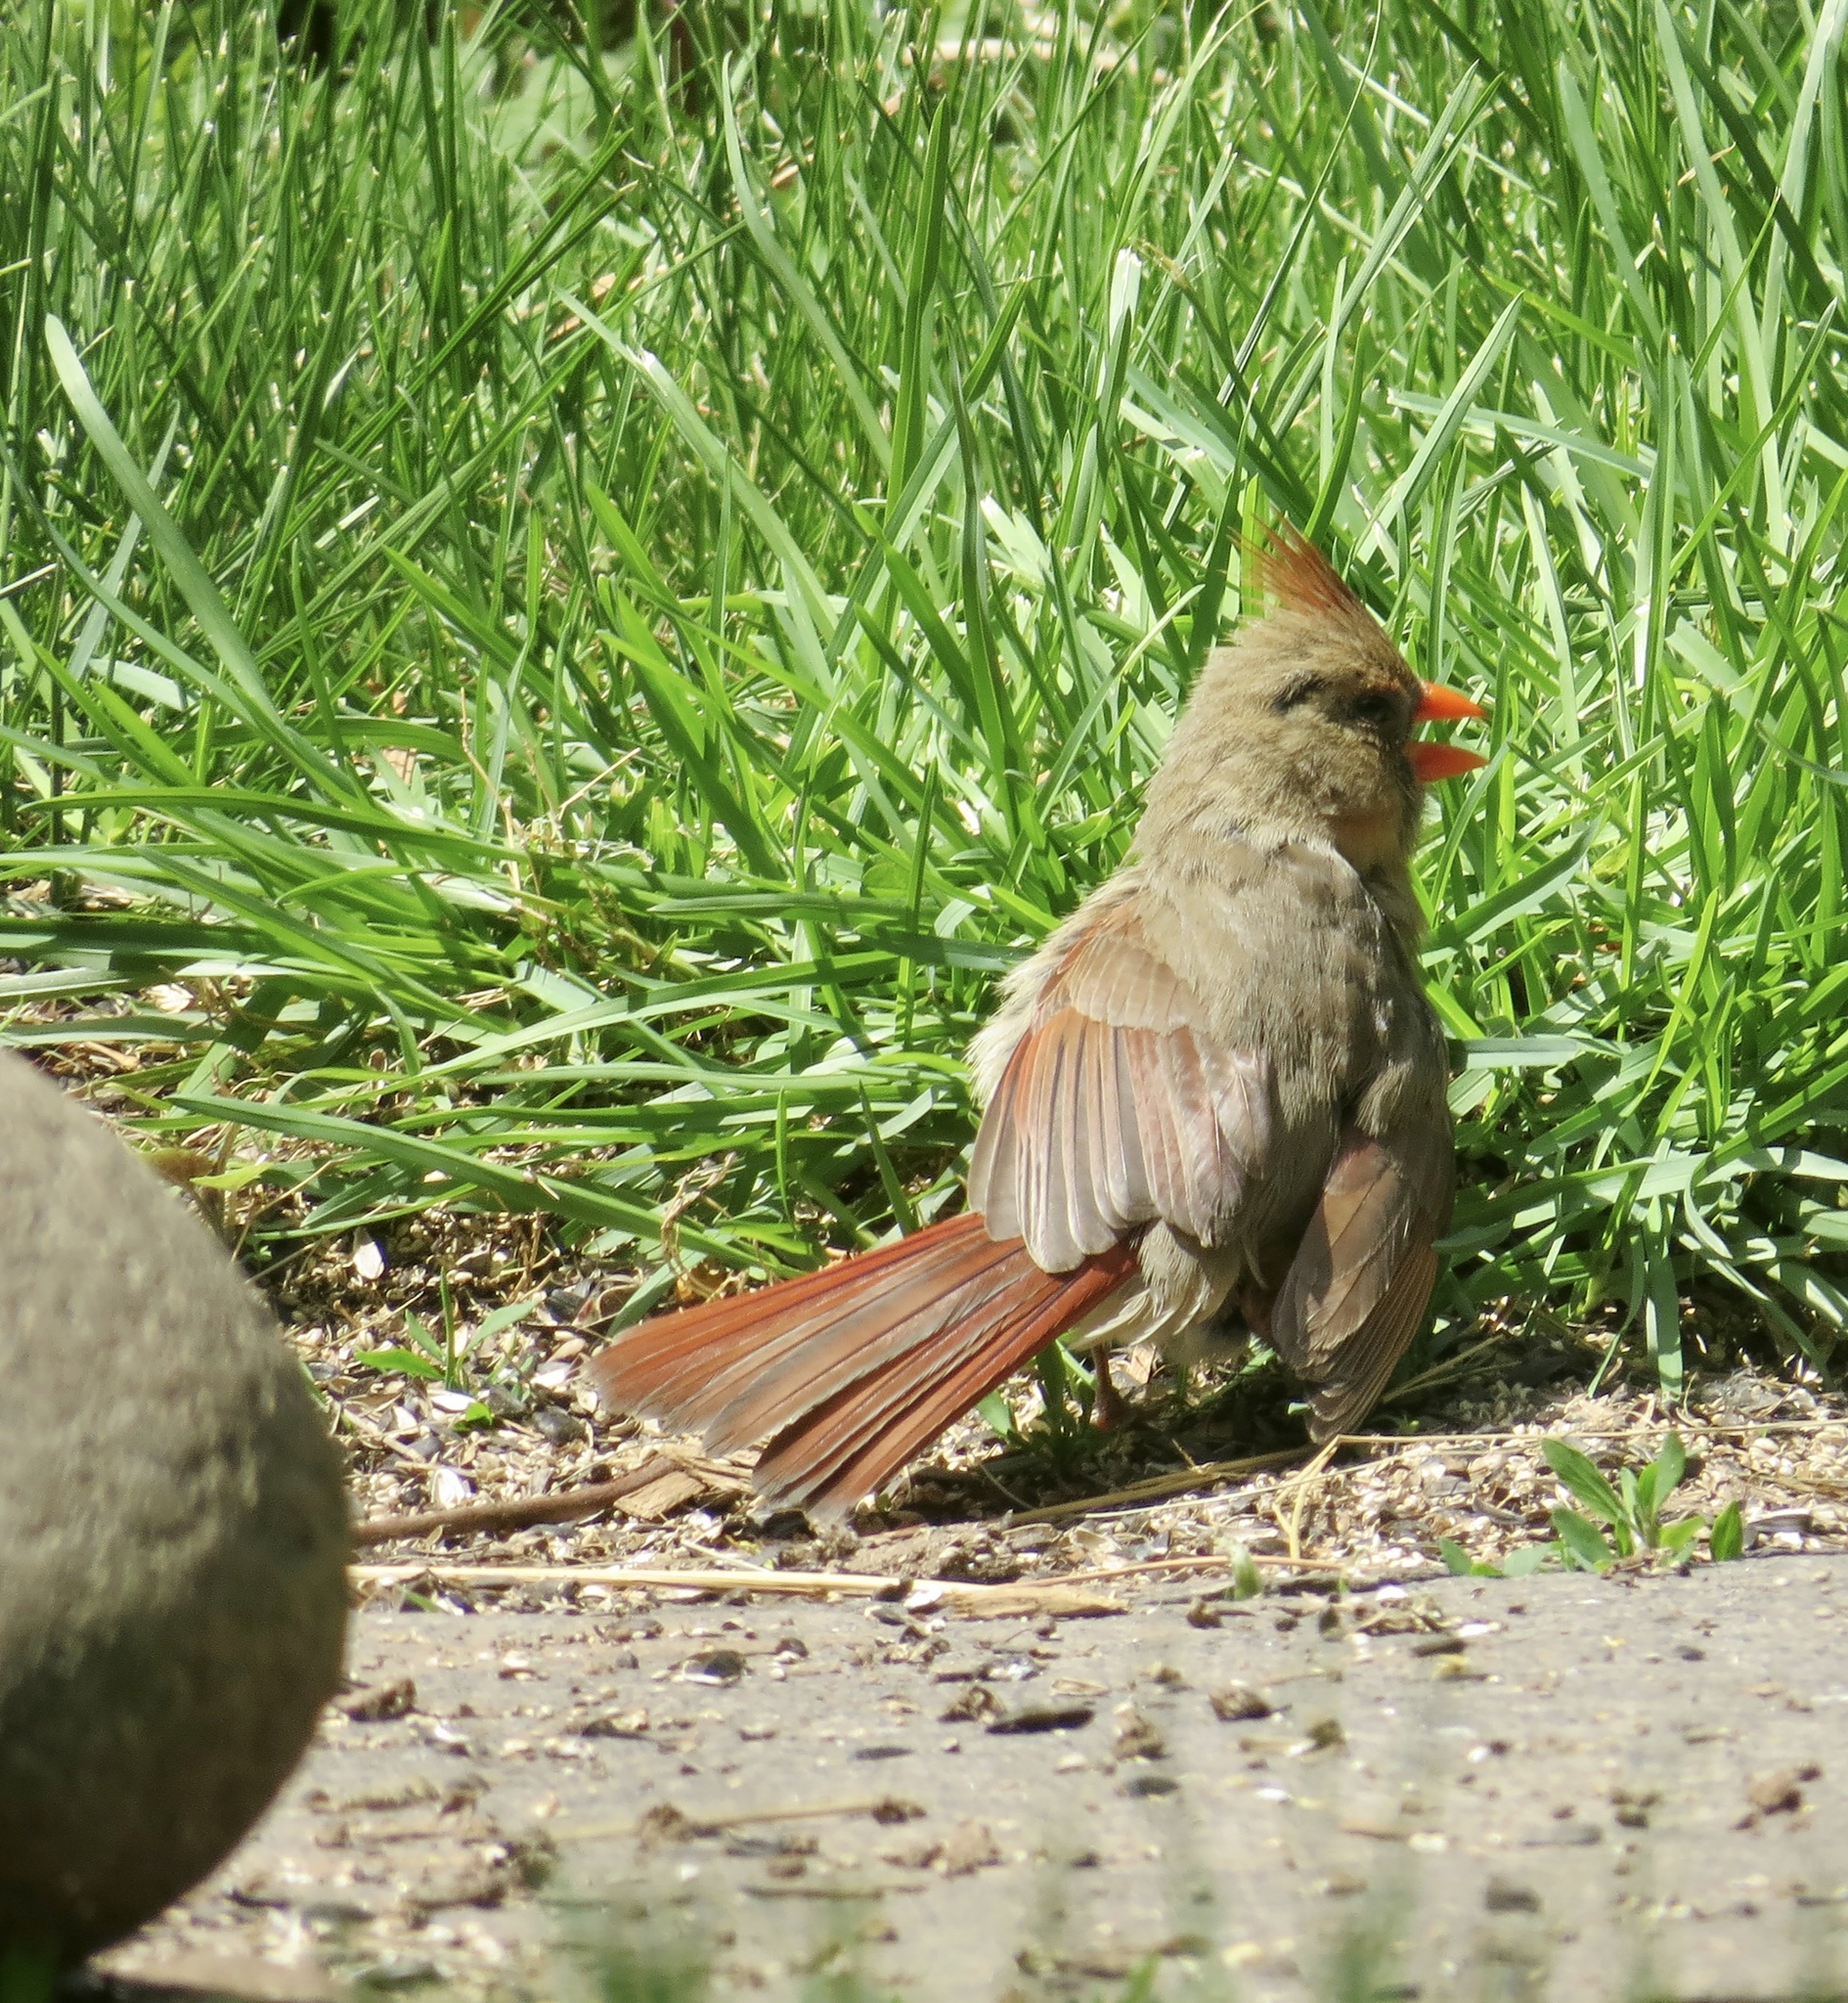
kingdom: Animalia
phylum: Chordata
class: Aves
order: Passeriformes
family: Cardinalidae
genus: Cardinalis
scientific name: Cardinalis cardinalis
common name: Northern cardinal
